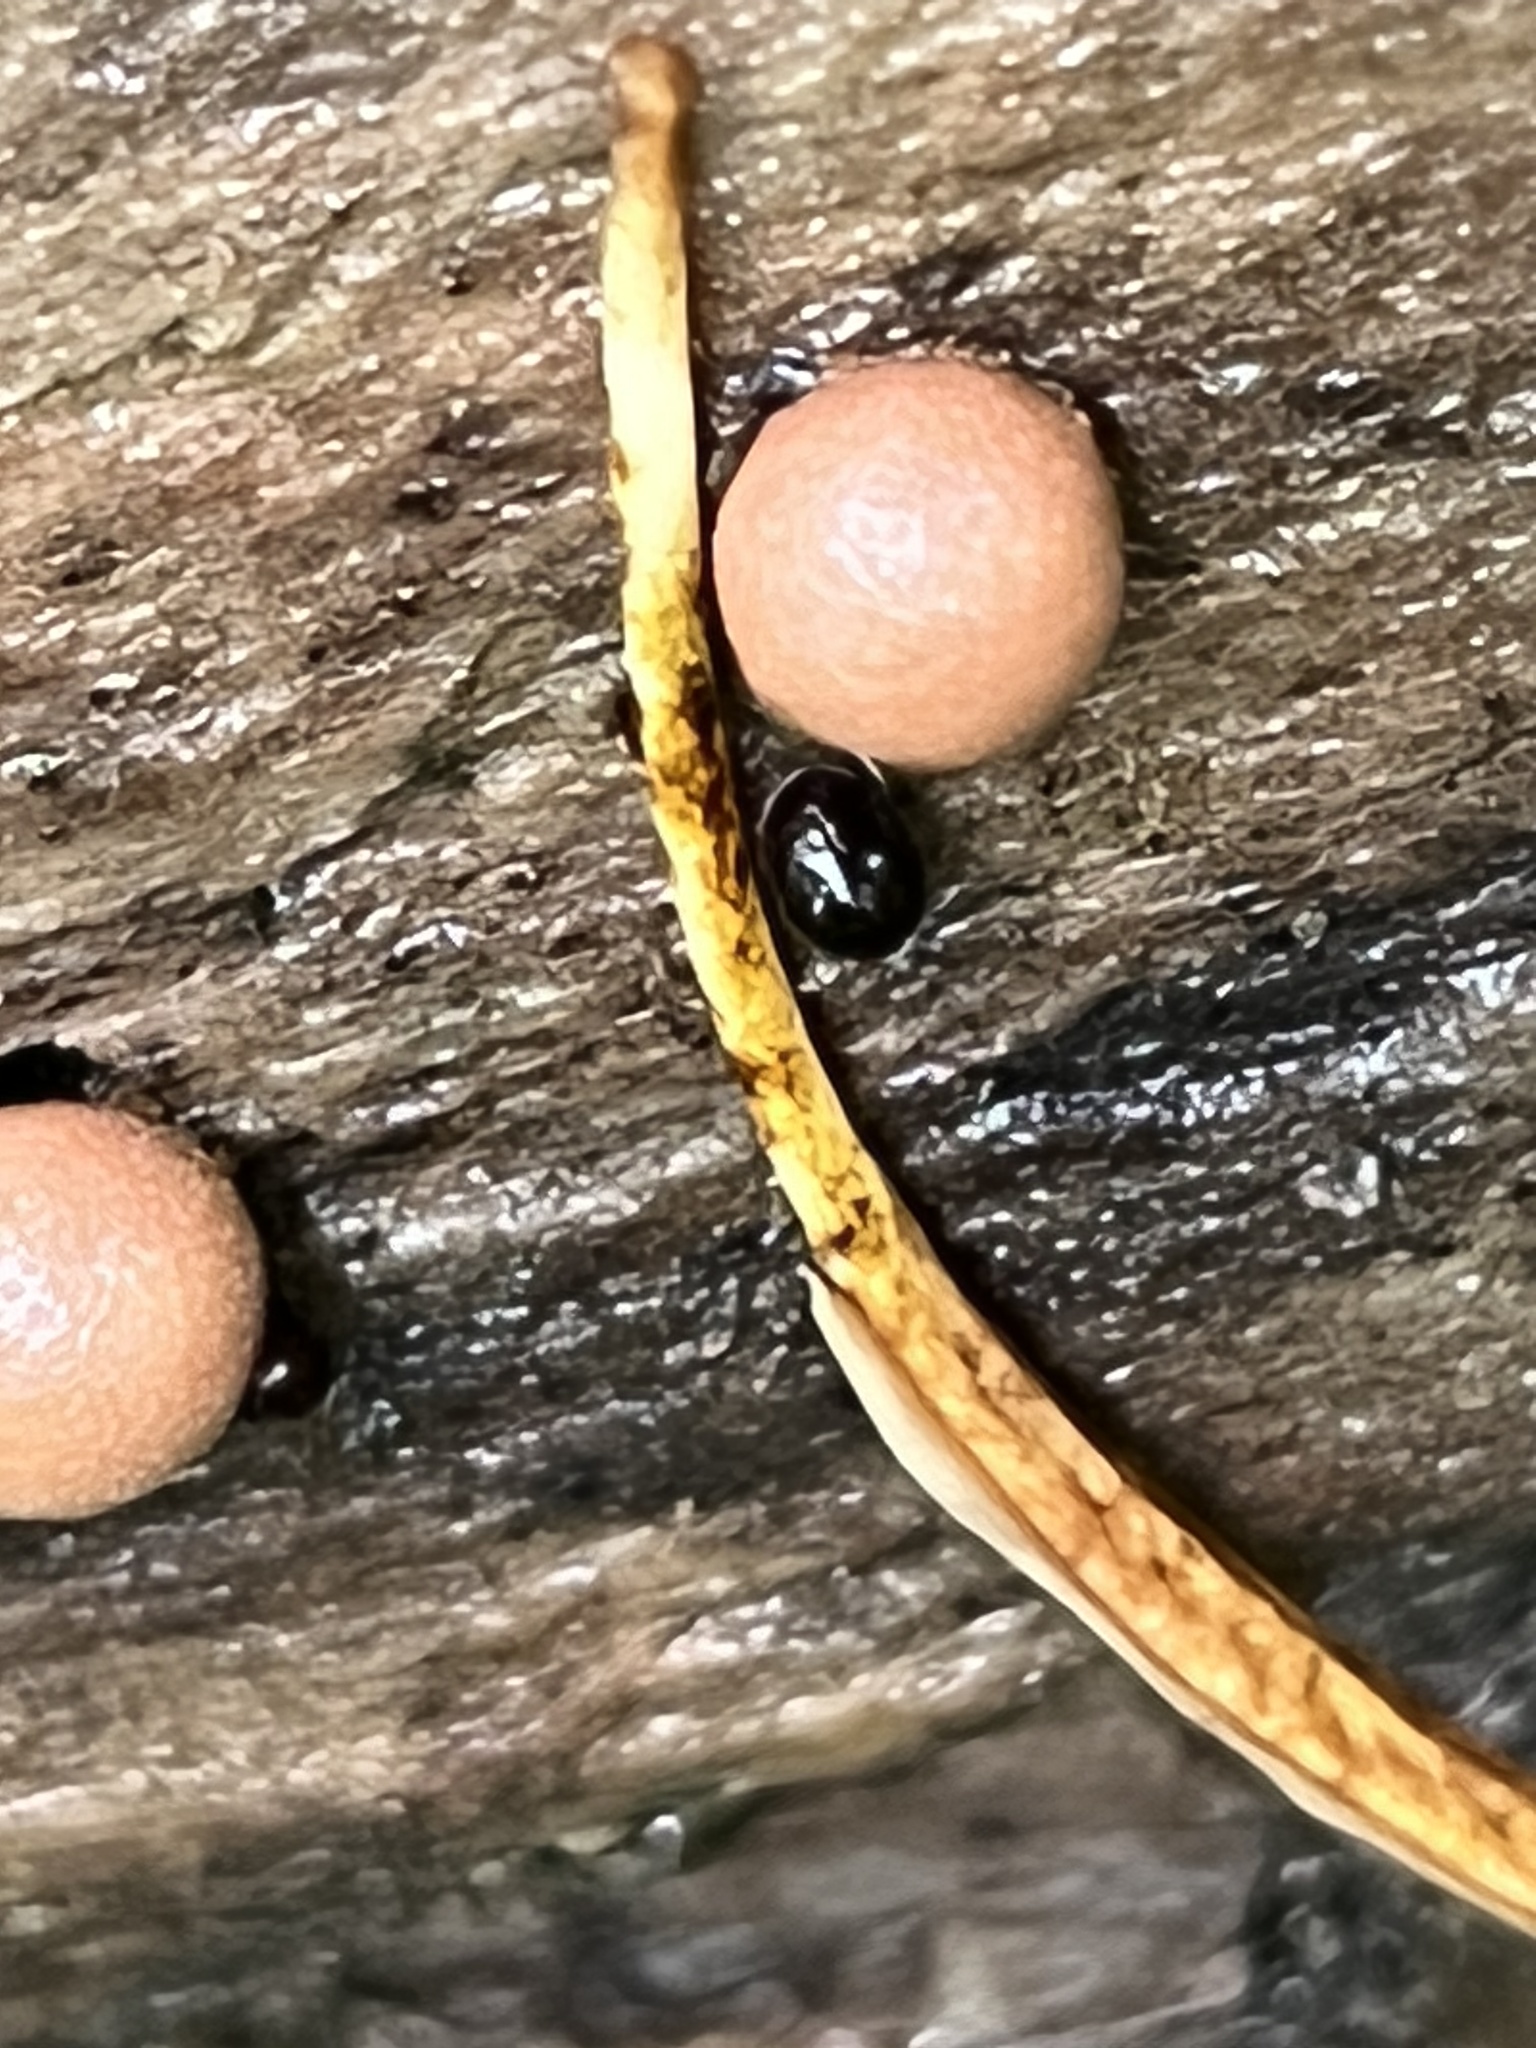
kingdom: Protozoa
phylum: Mycetozoa
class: Myxomycetes
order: Cribrariales
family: Tubiferaceae
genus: Lycogala
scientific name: Lycogala epidendrum
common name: Wolf's milk
